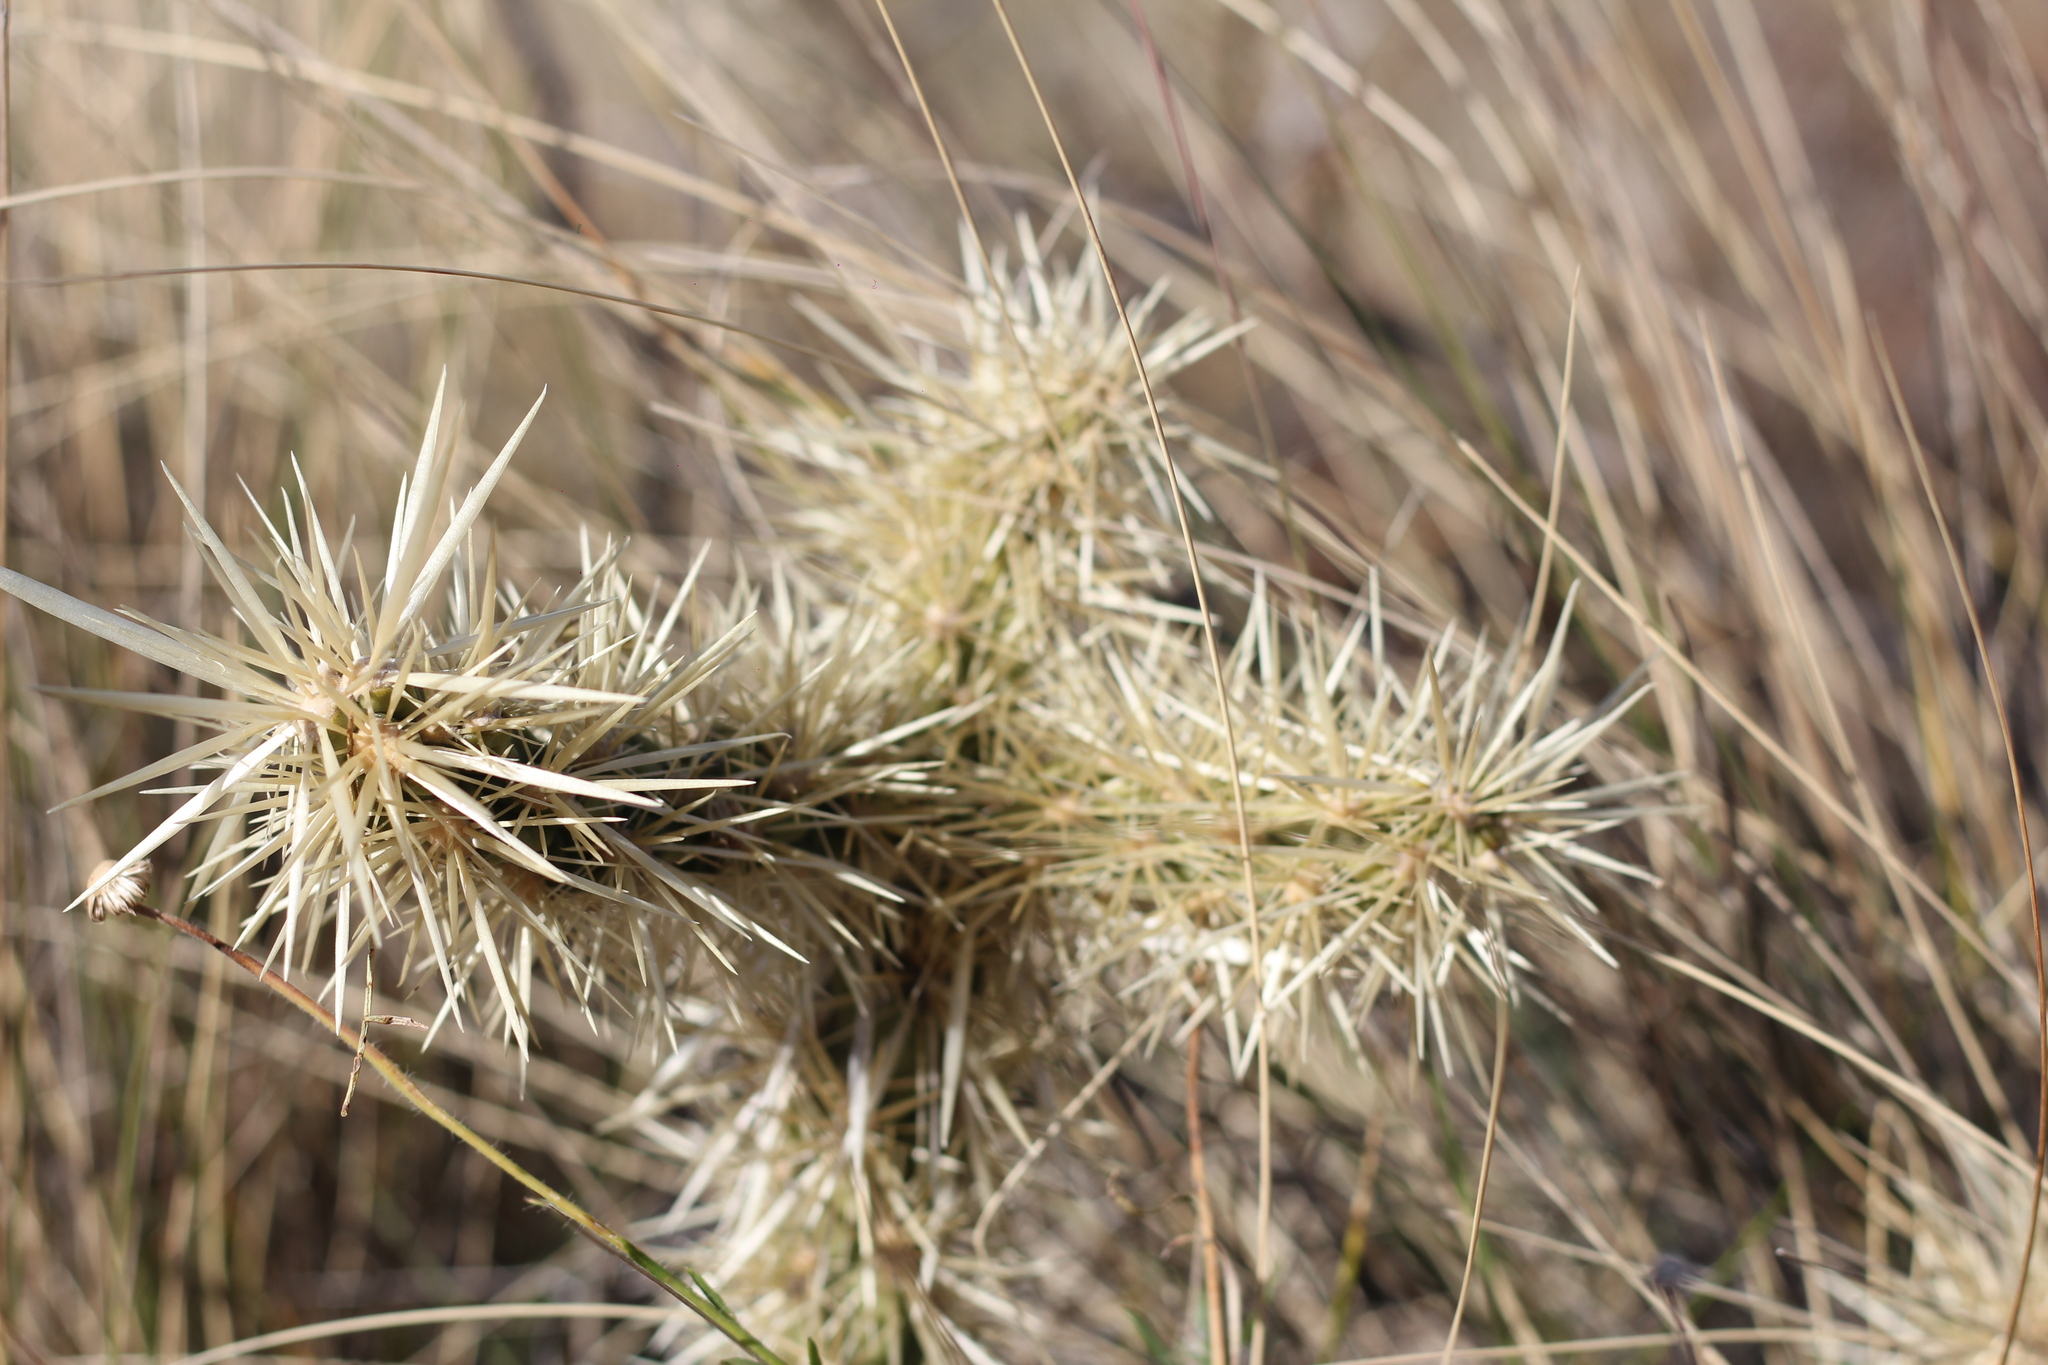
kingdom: Plantae
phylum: Tracheophyta
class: Magnoliopsida
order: Caryophyllales
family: Cactaceae
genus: Cylindropuntia
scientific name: Cylindropuntia tunicata
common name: Sheathed cholla
